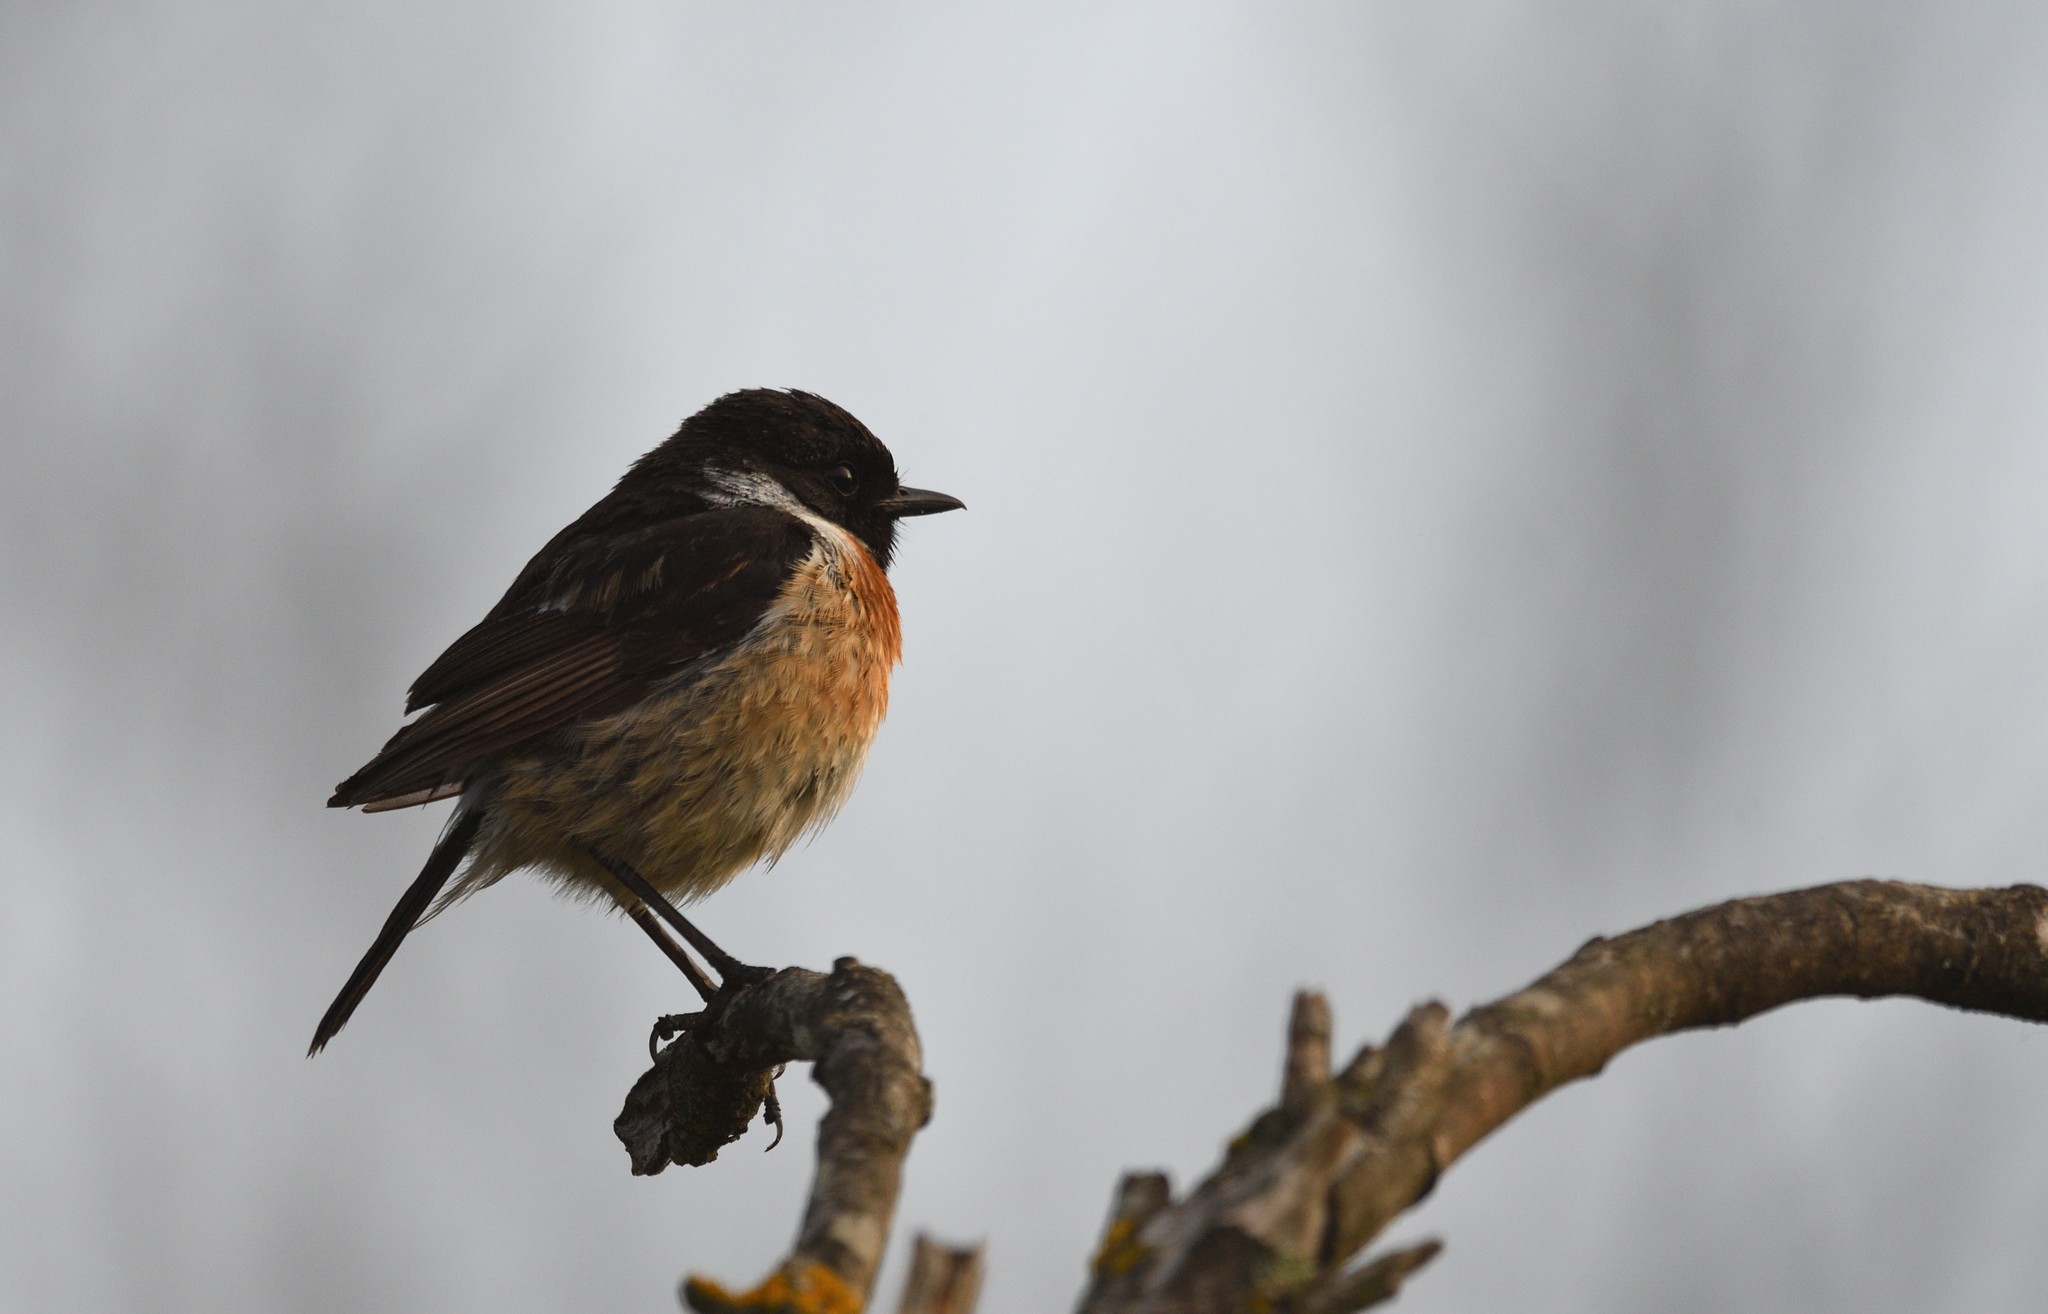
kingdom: Animalia
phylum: Chordata
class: Aves
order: Passeriformes
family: Muscicapidae
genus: Saxicola
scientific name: Saxicola rubicola
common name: European stonechat
